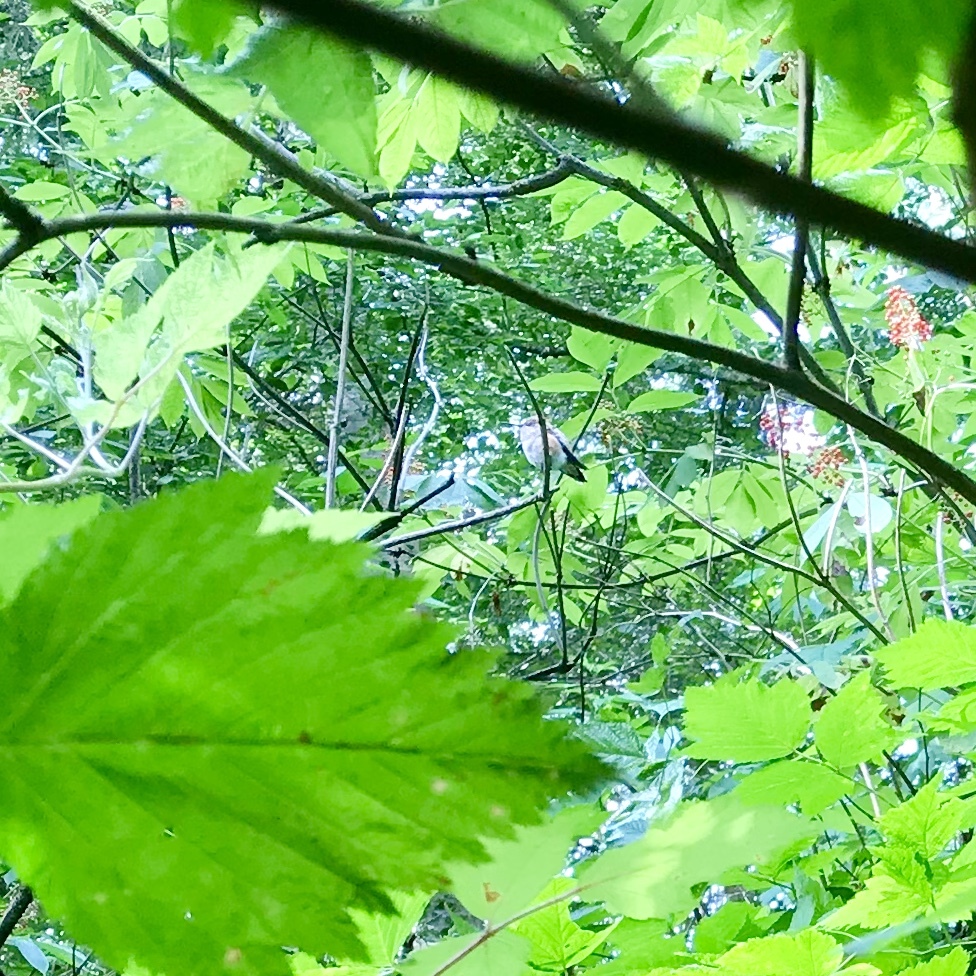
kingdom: Animalia
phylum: Chordata
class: Aves
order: Apodiformes
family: Trochilidae
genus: Selasphorus
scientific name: Selasphorus rufus
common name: Rufous hummingbird
